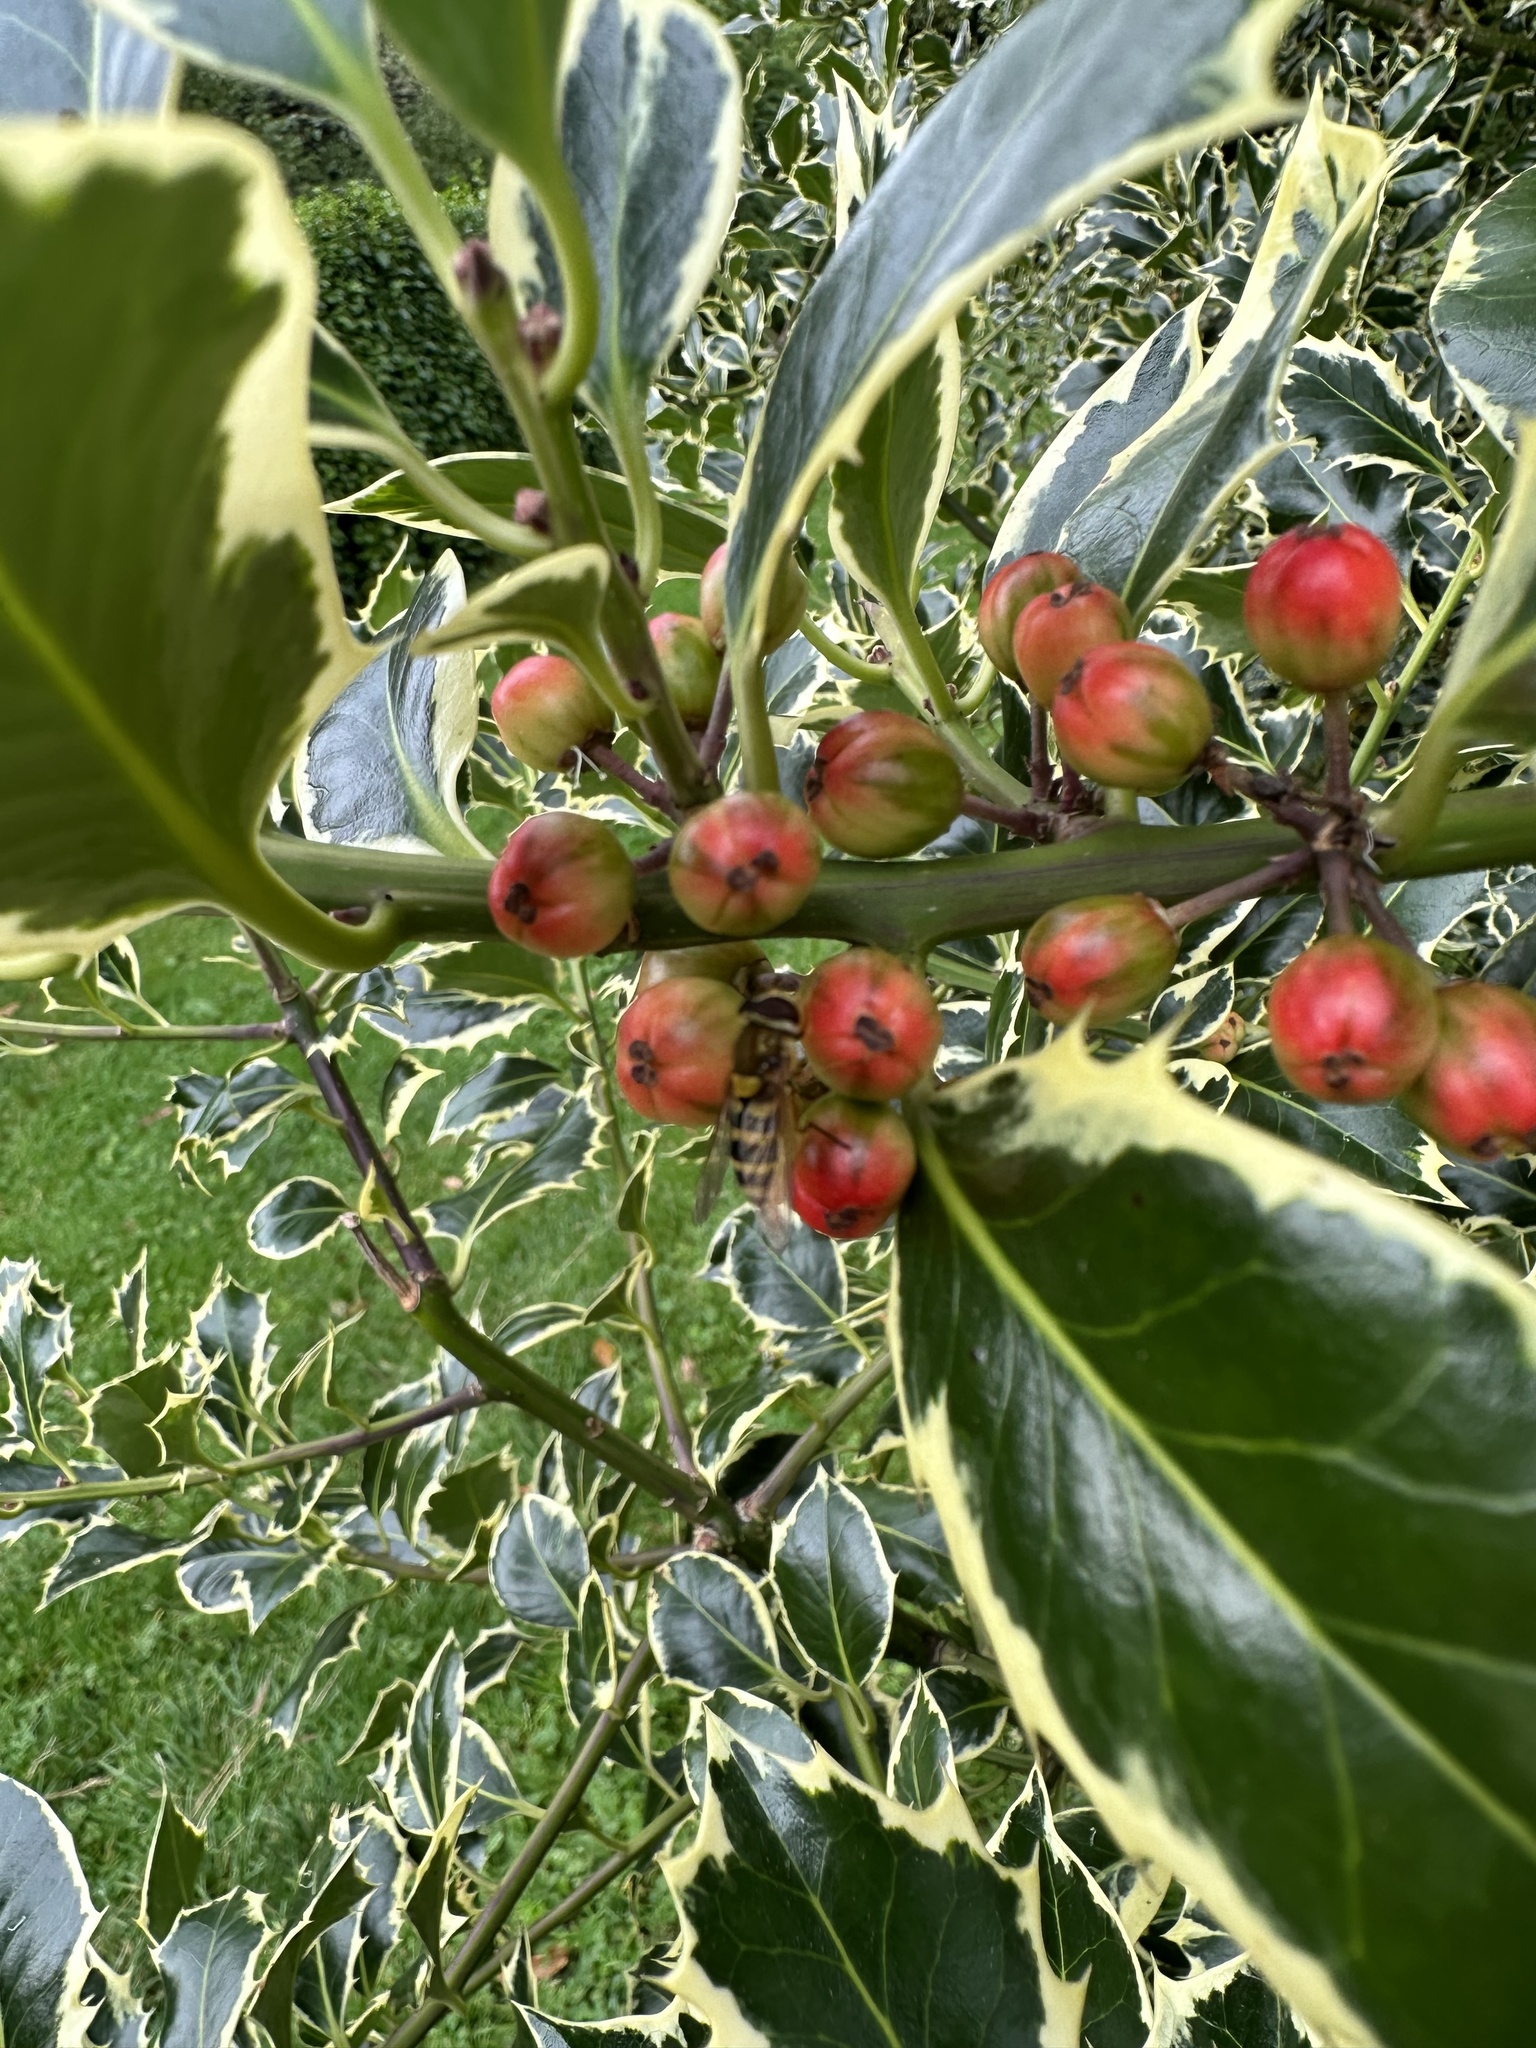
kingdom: Plantae
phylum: Tracheophyta
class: Magnoliopsida
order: Aquifoliales
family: Aquifoliaceae
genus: Ilex
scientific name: Ilex aquifolium
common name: English holly
